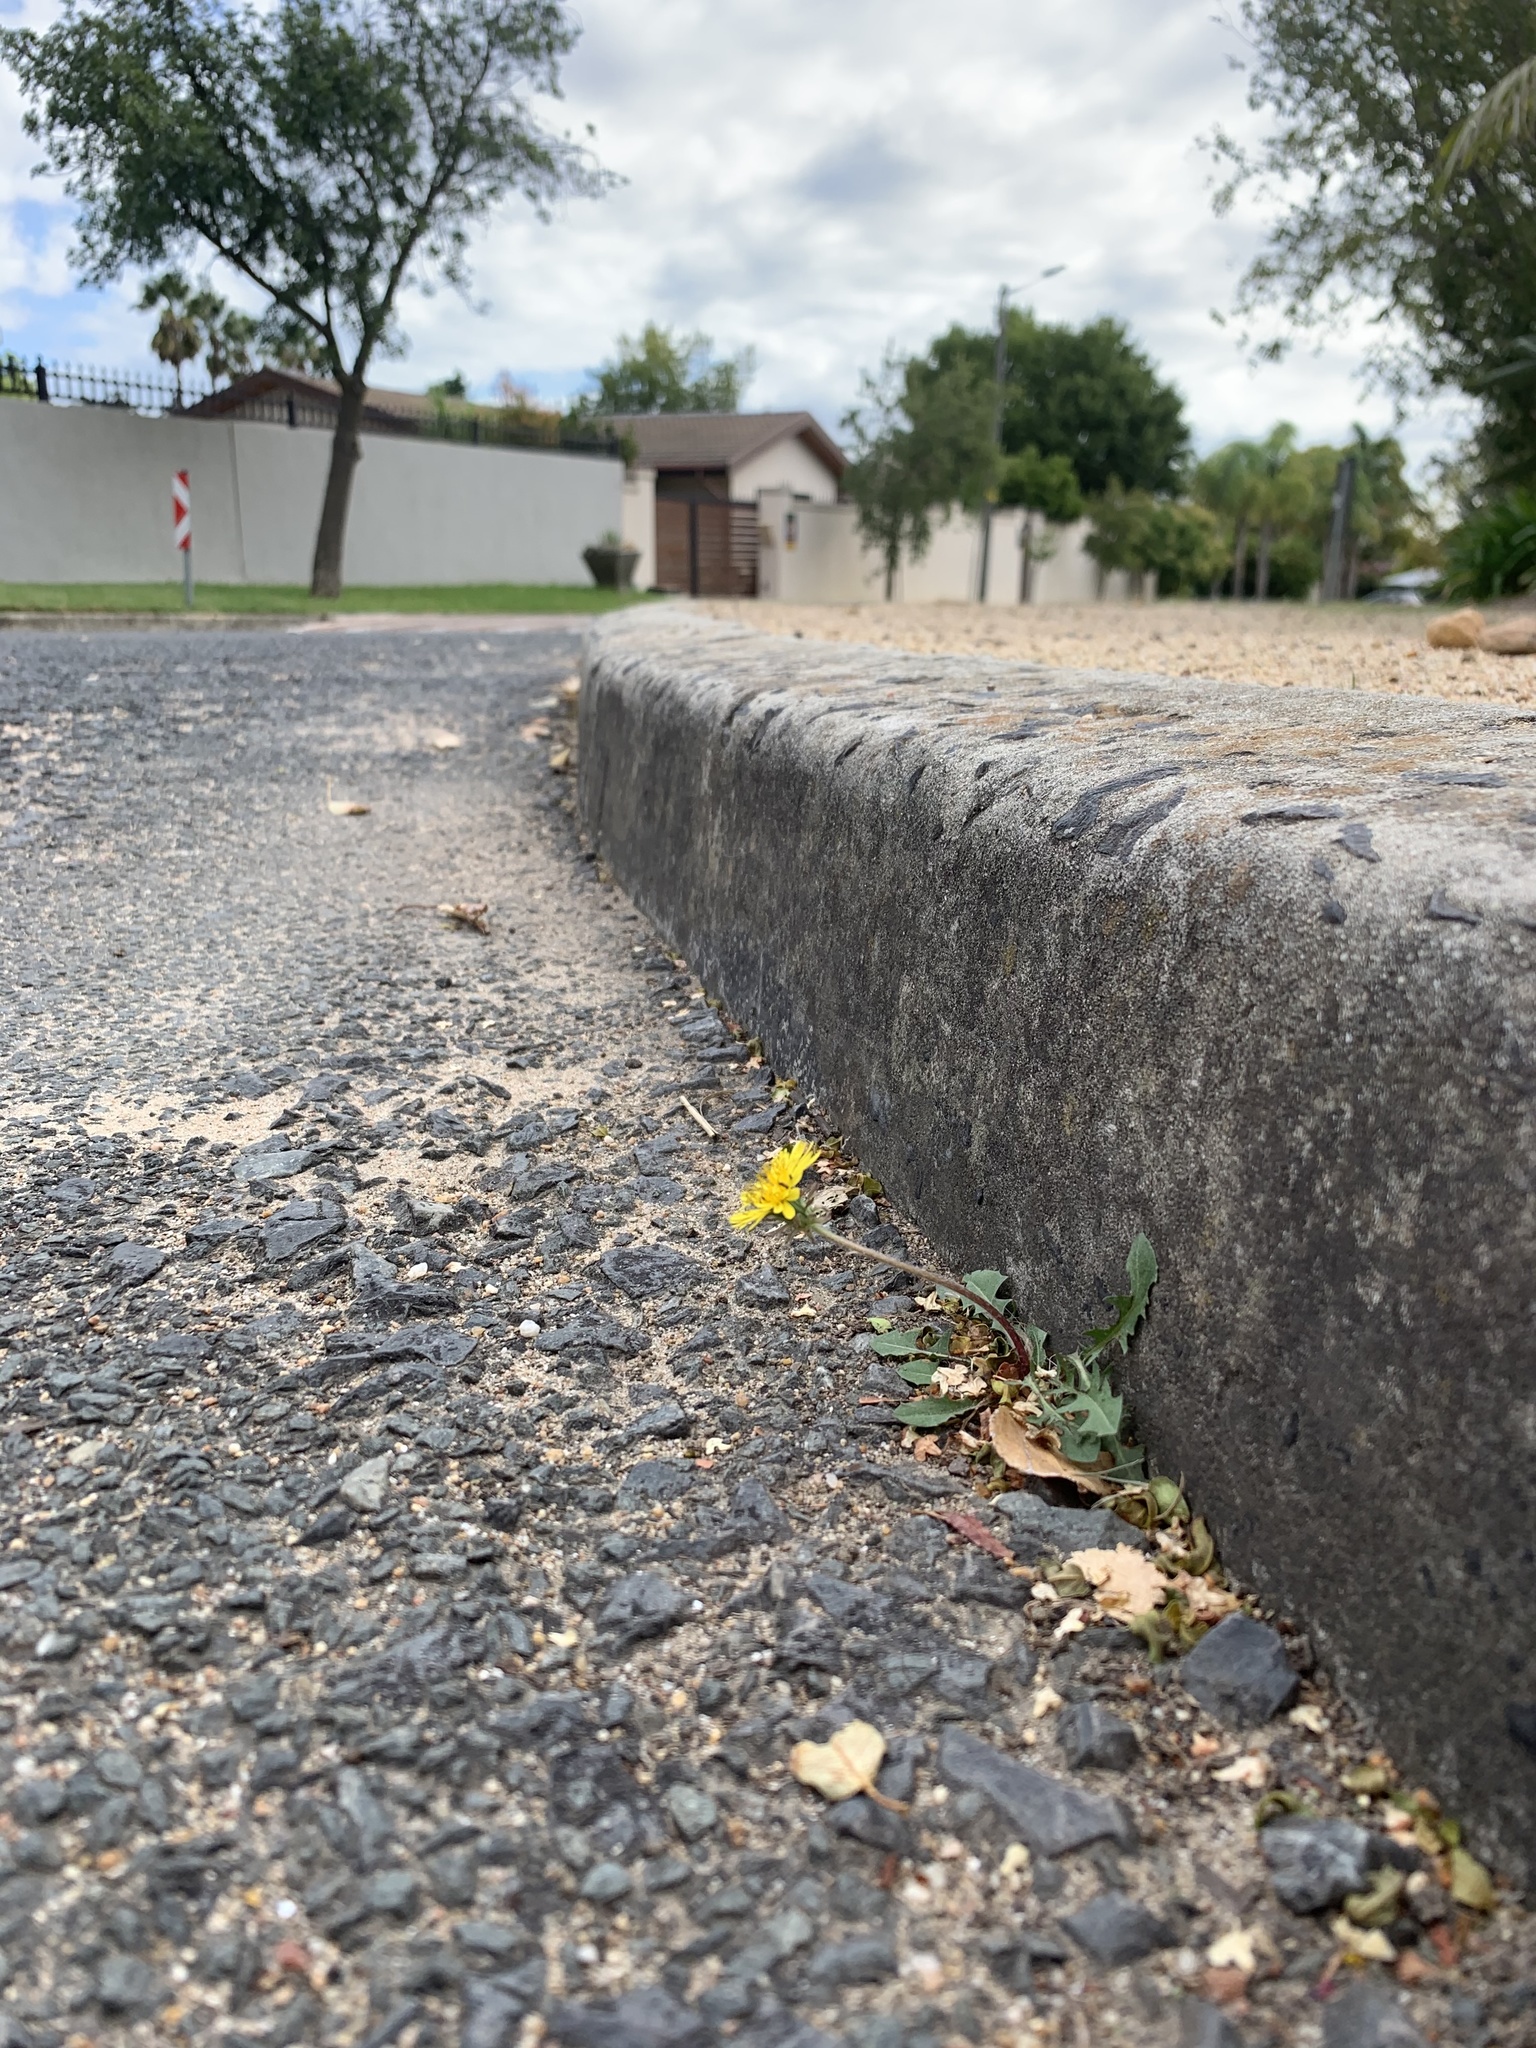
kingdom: Plantae
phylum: Tracheophyta
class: Magnoliopsida
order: Asterales
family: Asteraceae
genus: Taraxacum
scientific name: Taraxacum officinale
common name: Common dandelion
